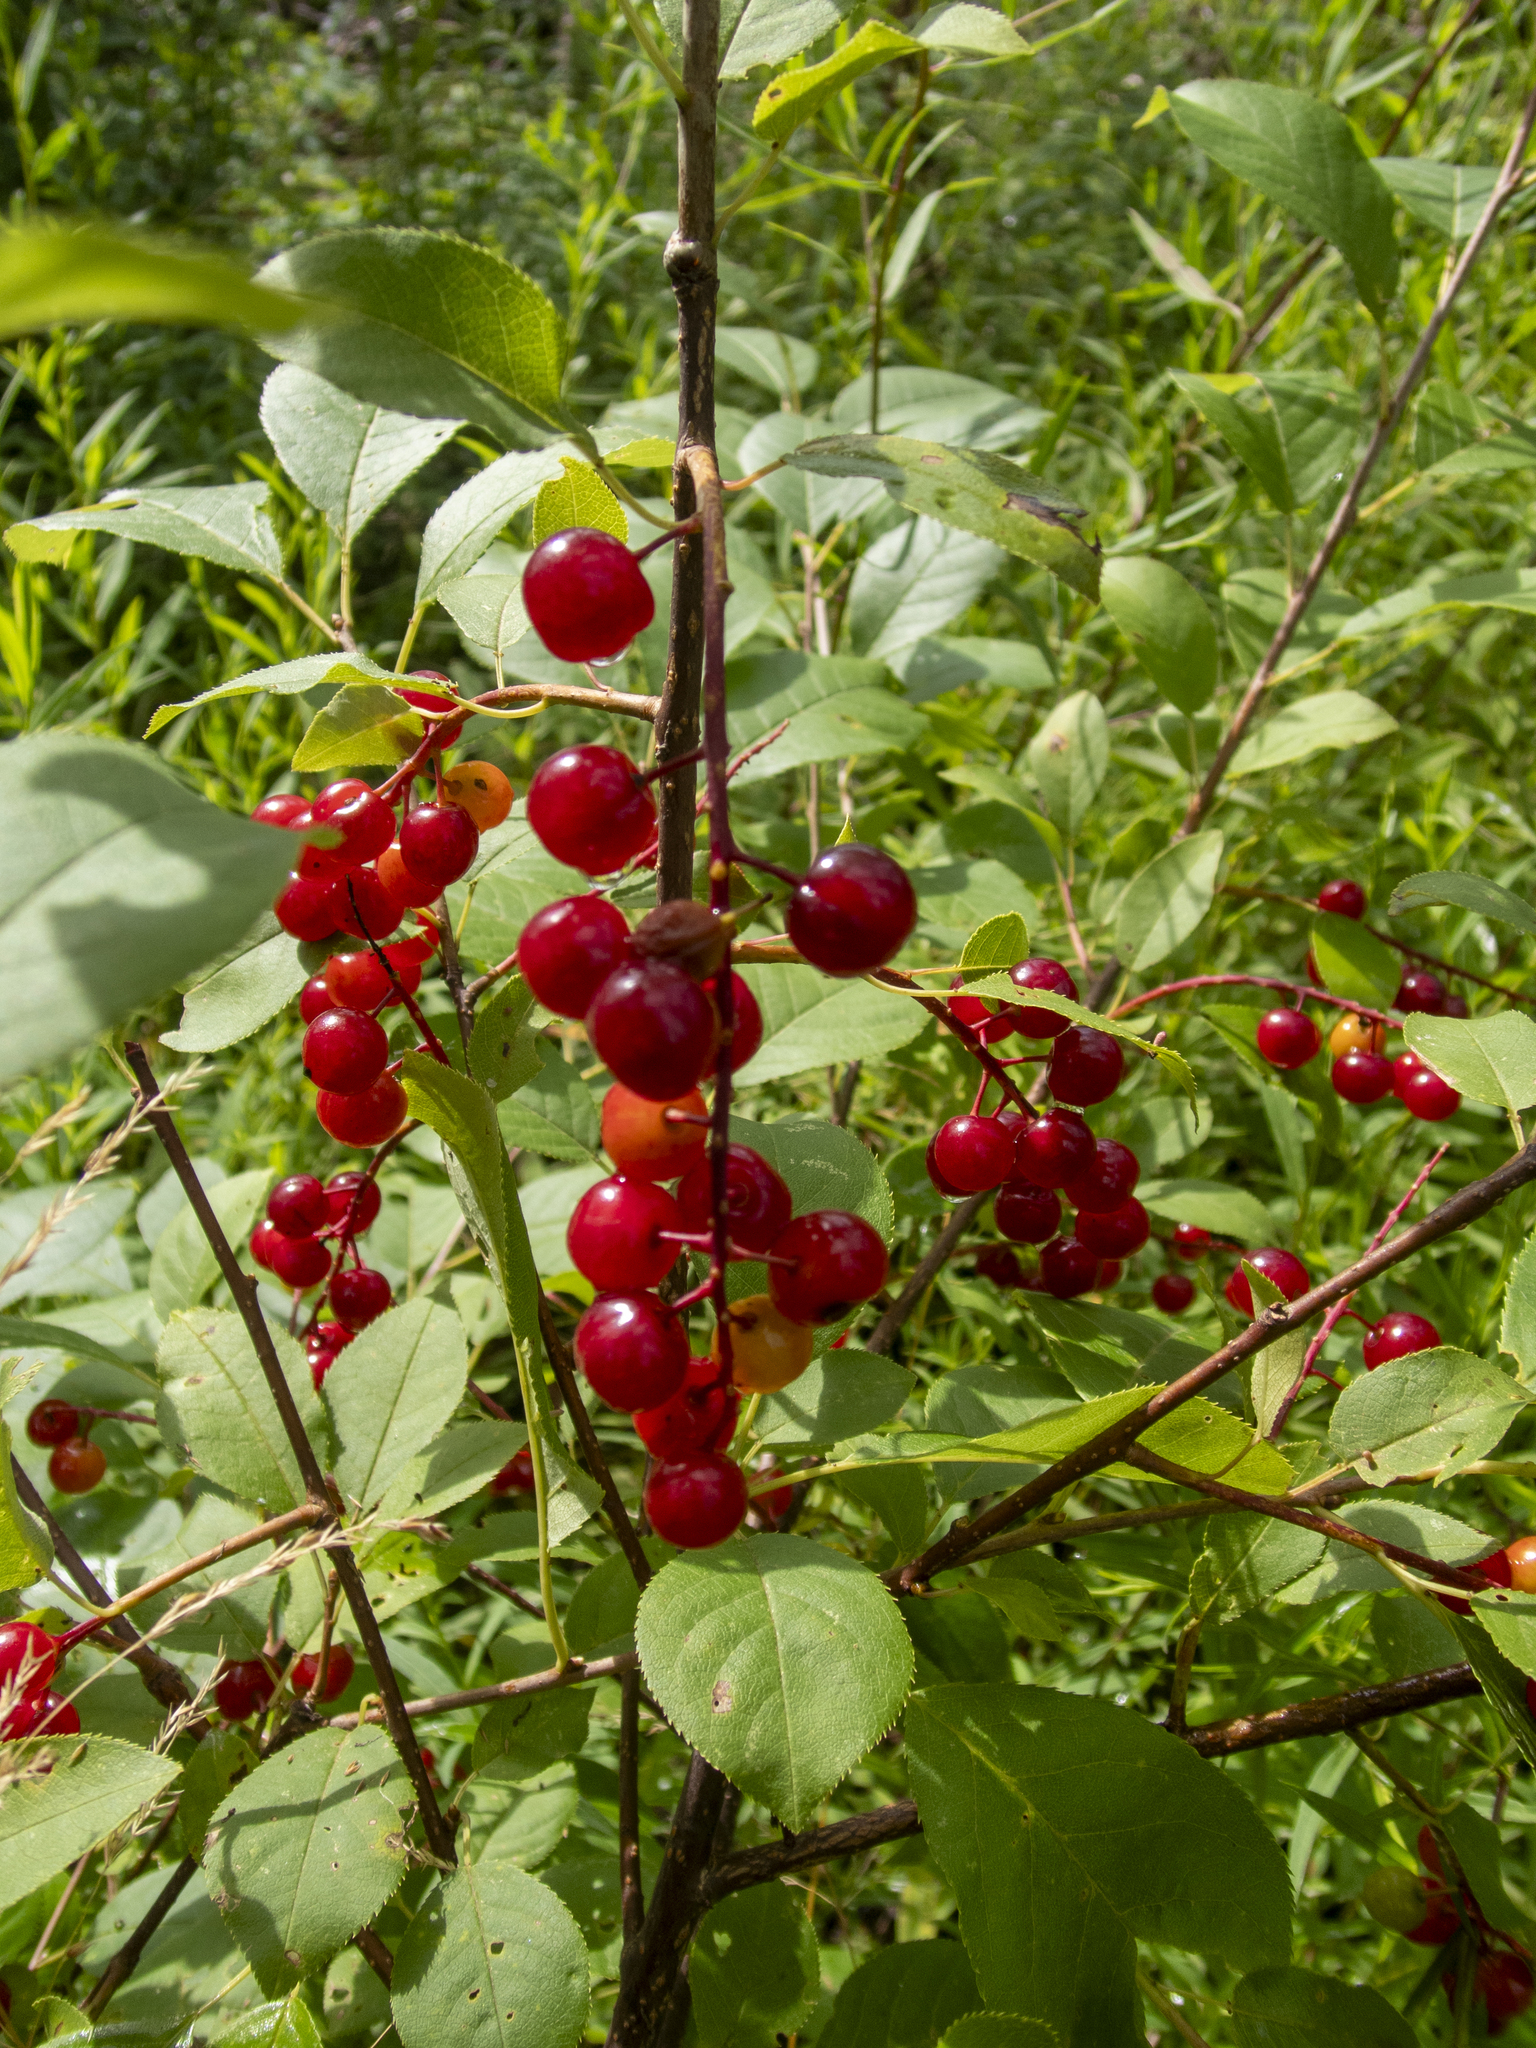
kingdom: Plantae
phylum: Tracheophyta
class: Magnoliopsida
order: Rosales
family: Rosaceae
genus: Prunus
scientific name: Prunus virginiana
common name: Chokecherry
